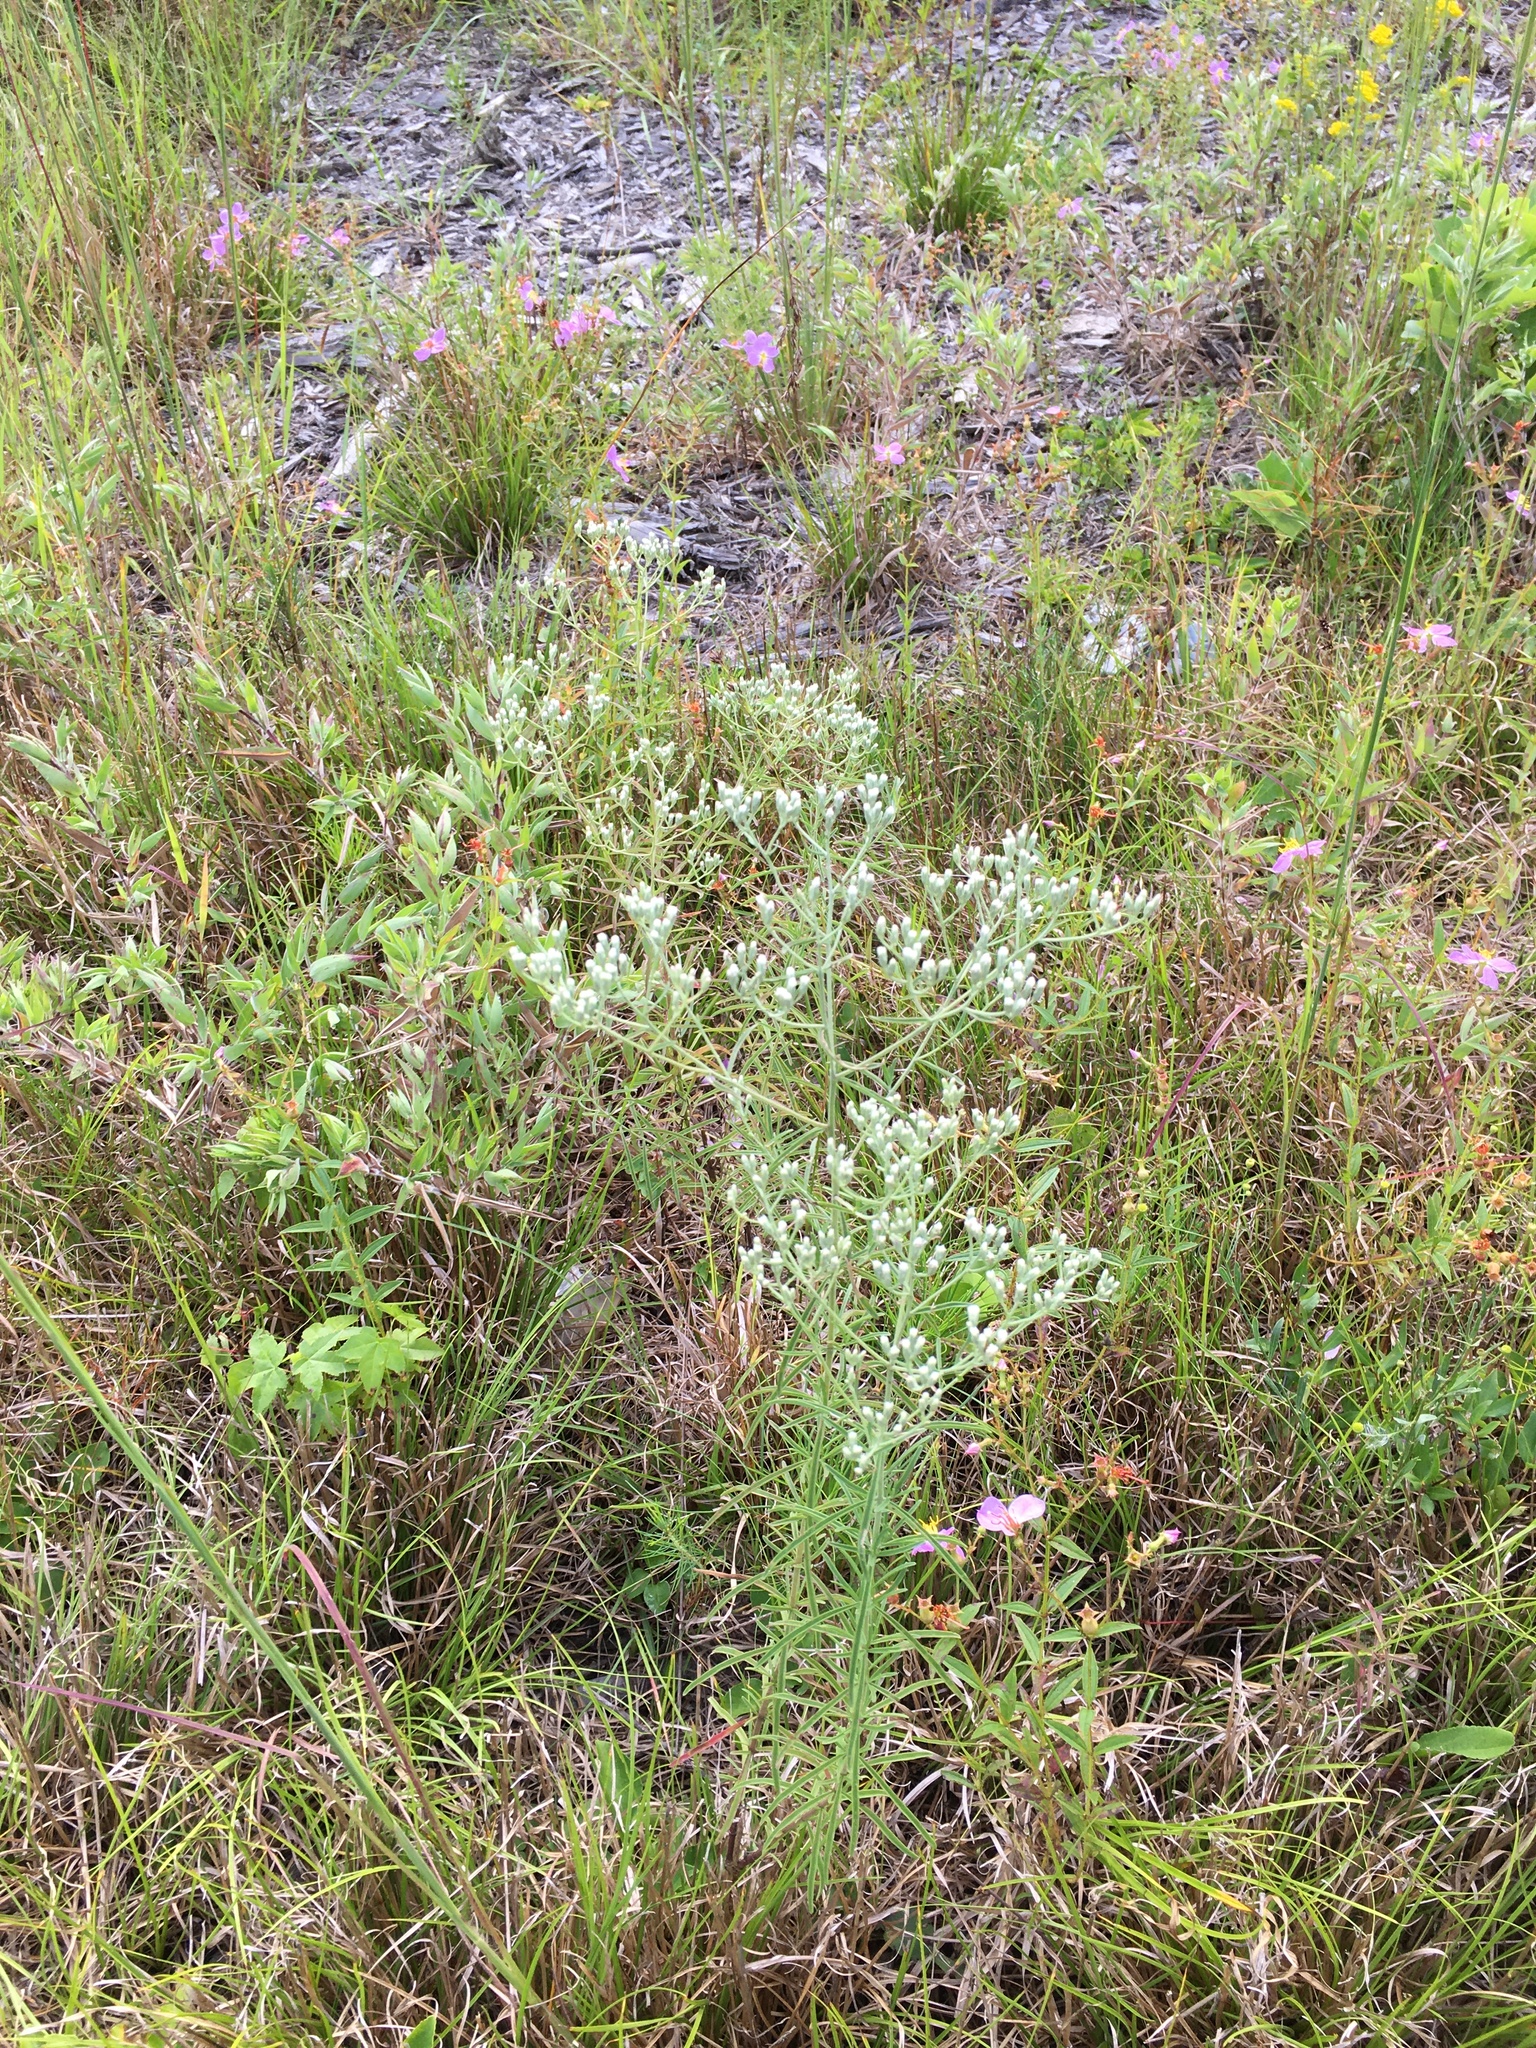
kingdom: Plantae
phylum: Tracheophyta
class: Magnoliopsida
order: Asterales
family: Asteraceae
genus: Eupatorium
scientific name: Eupatorium hyssopifolium
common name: Hyssop-leaf thoroughwort
